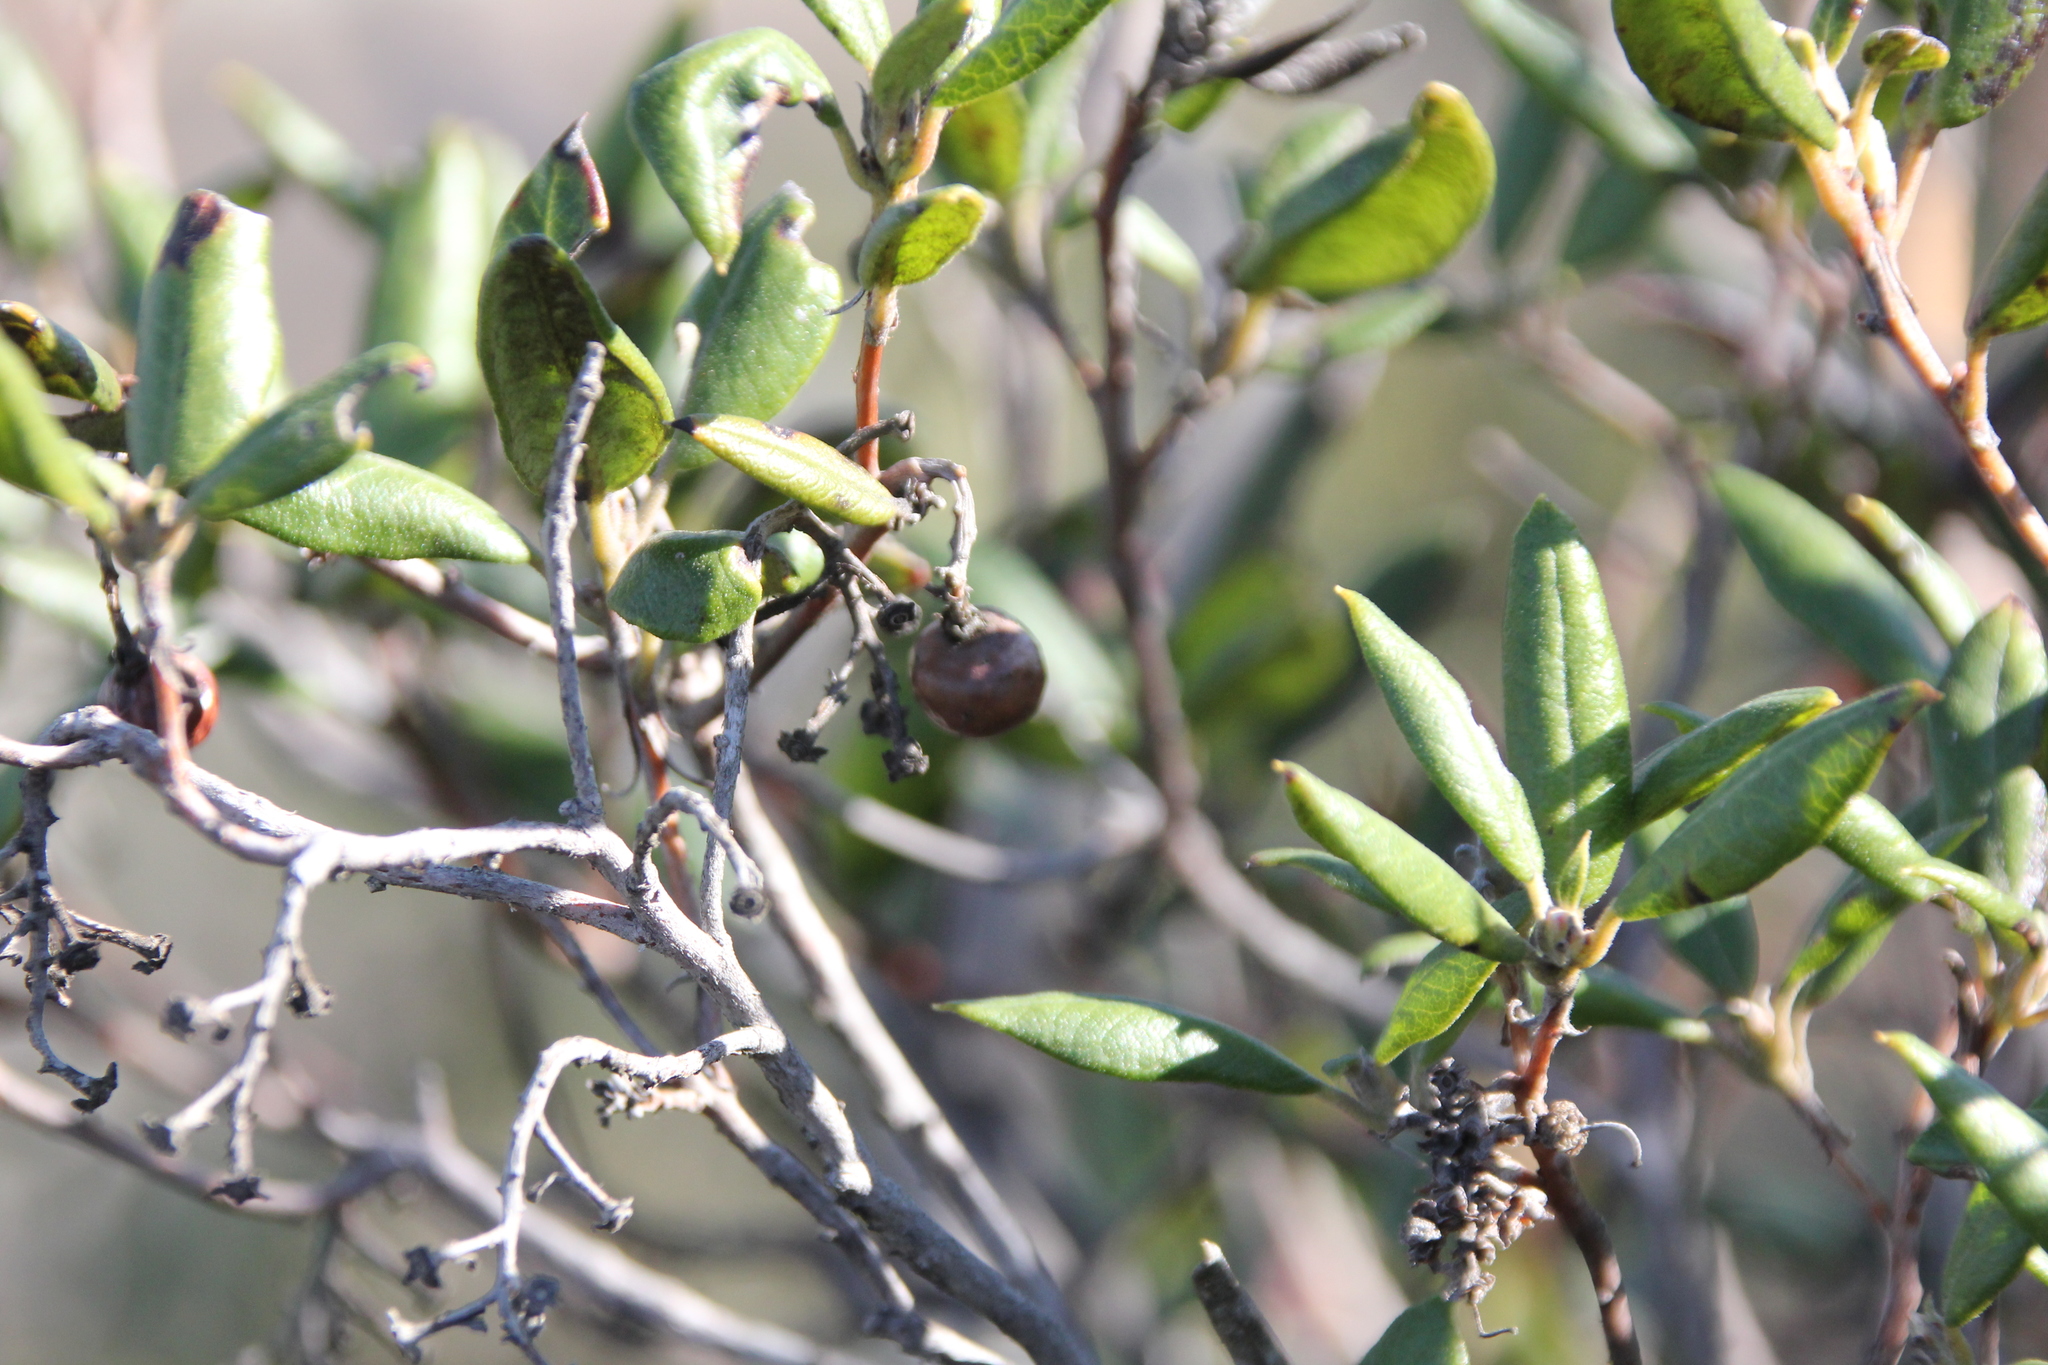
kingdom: Plantae
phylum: Tracheophyta
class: Magnoliopsida
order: Ericales
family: Ericaceae
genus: Arctostaphylos
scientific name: Arctostaphylos bicolor
